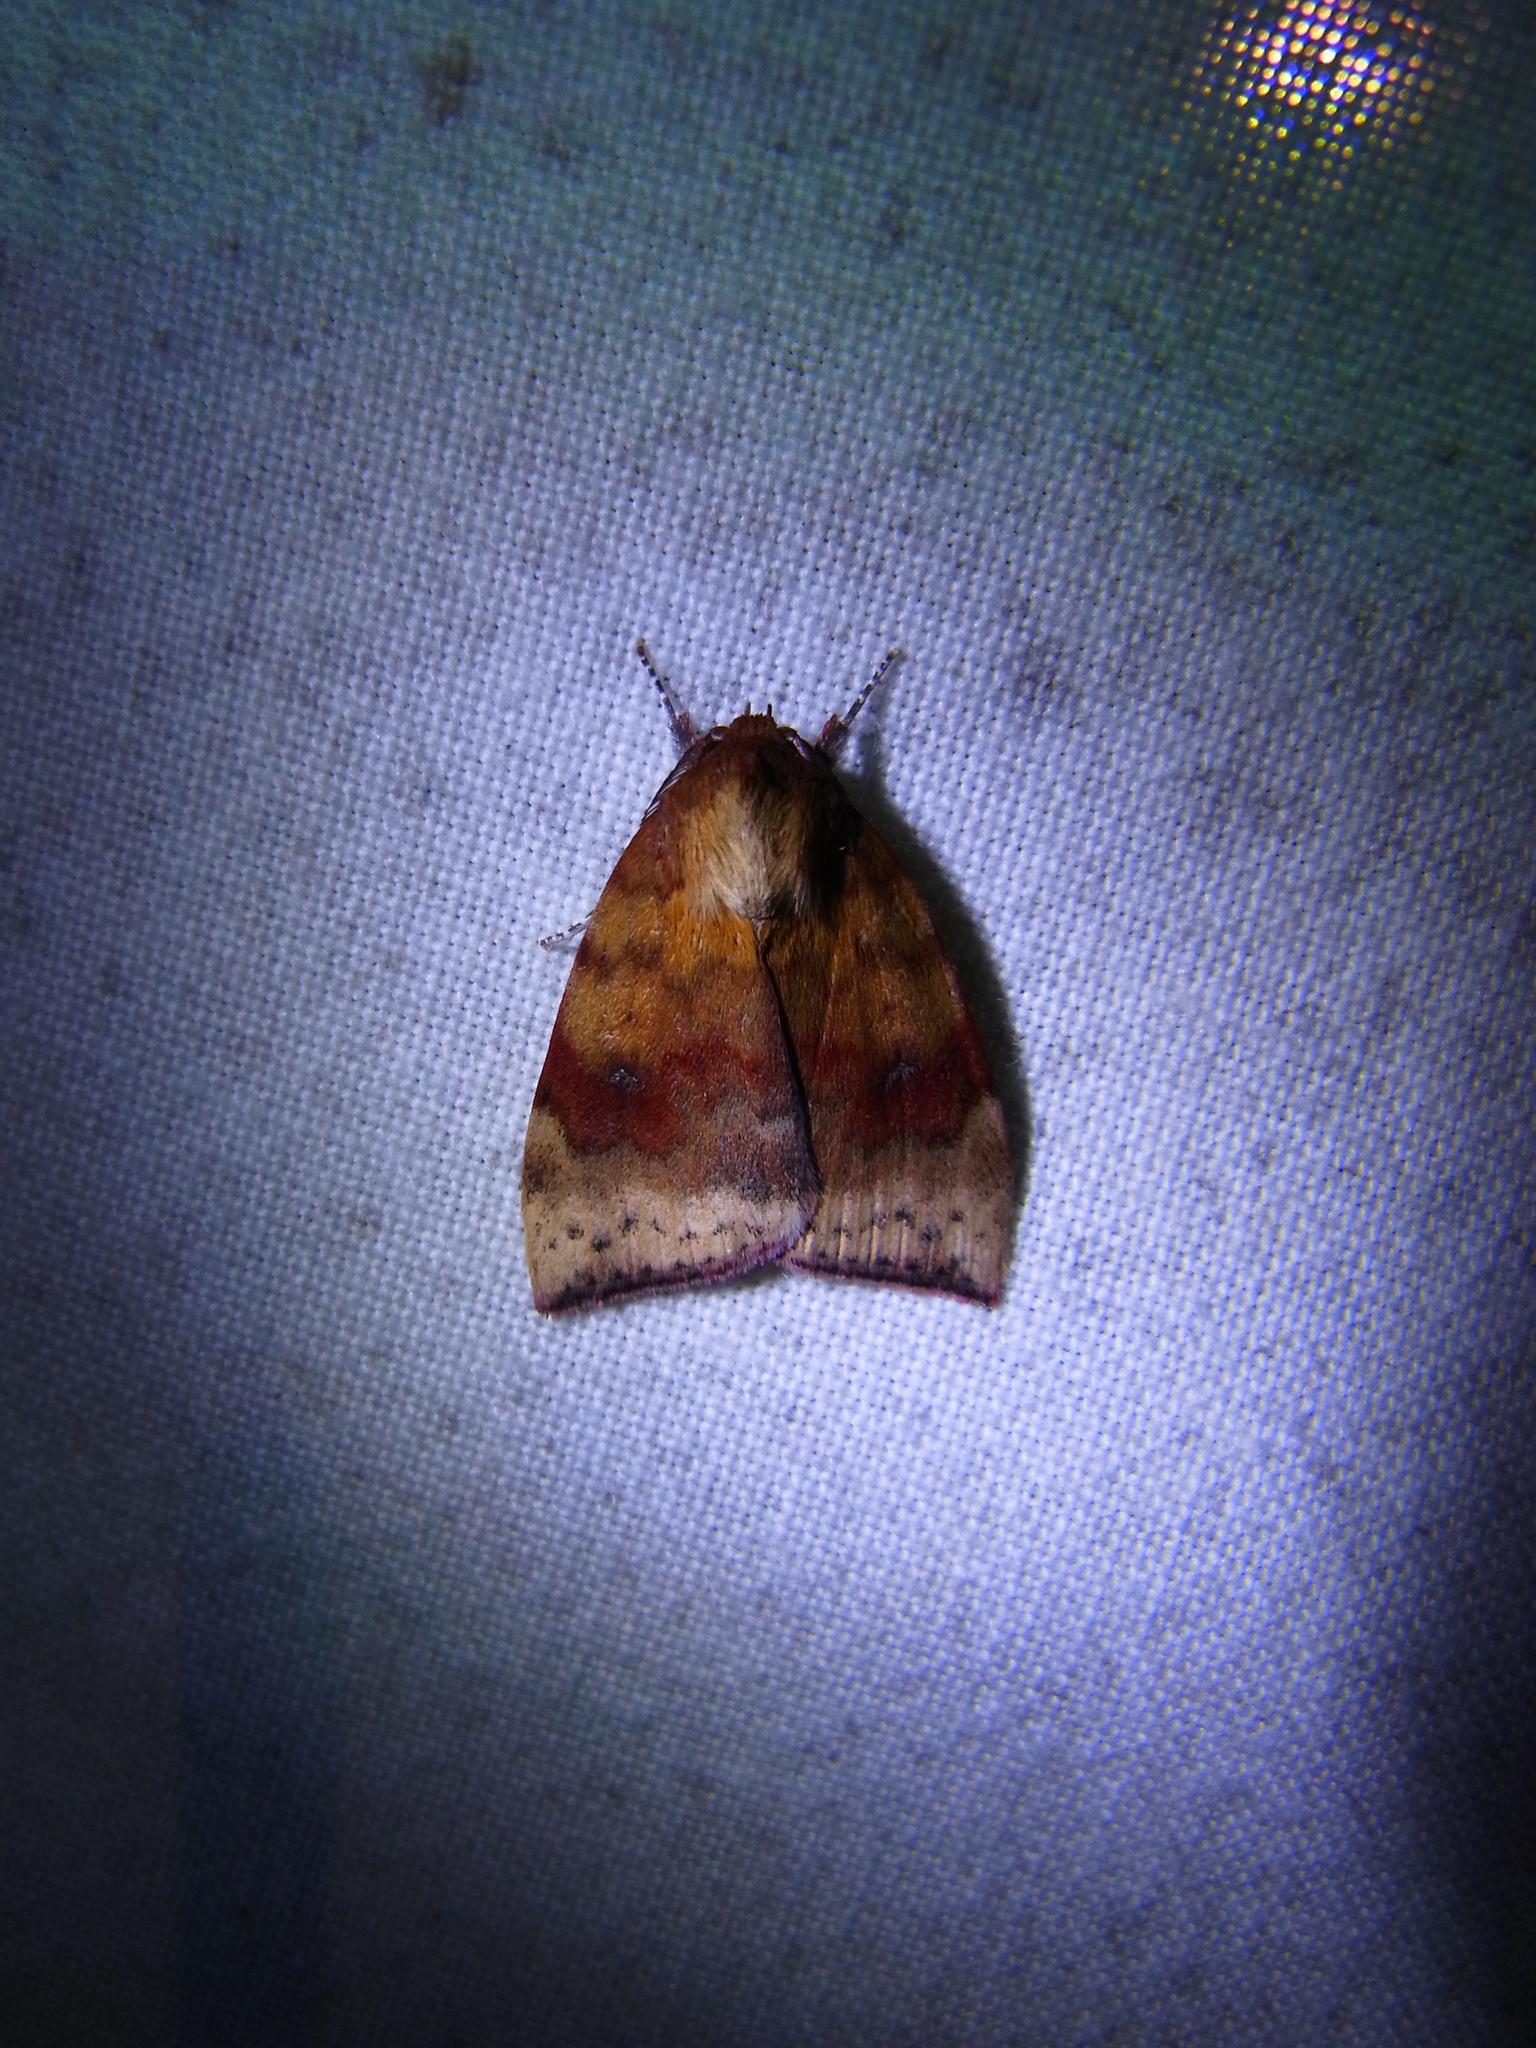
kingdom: Animalia
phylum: Arthropoda
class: Insecta
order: Lepidoptera
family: Nolidae
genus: Gelastocera
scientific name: Gelastocera kotshubeji
